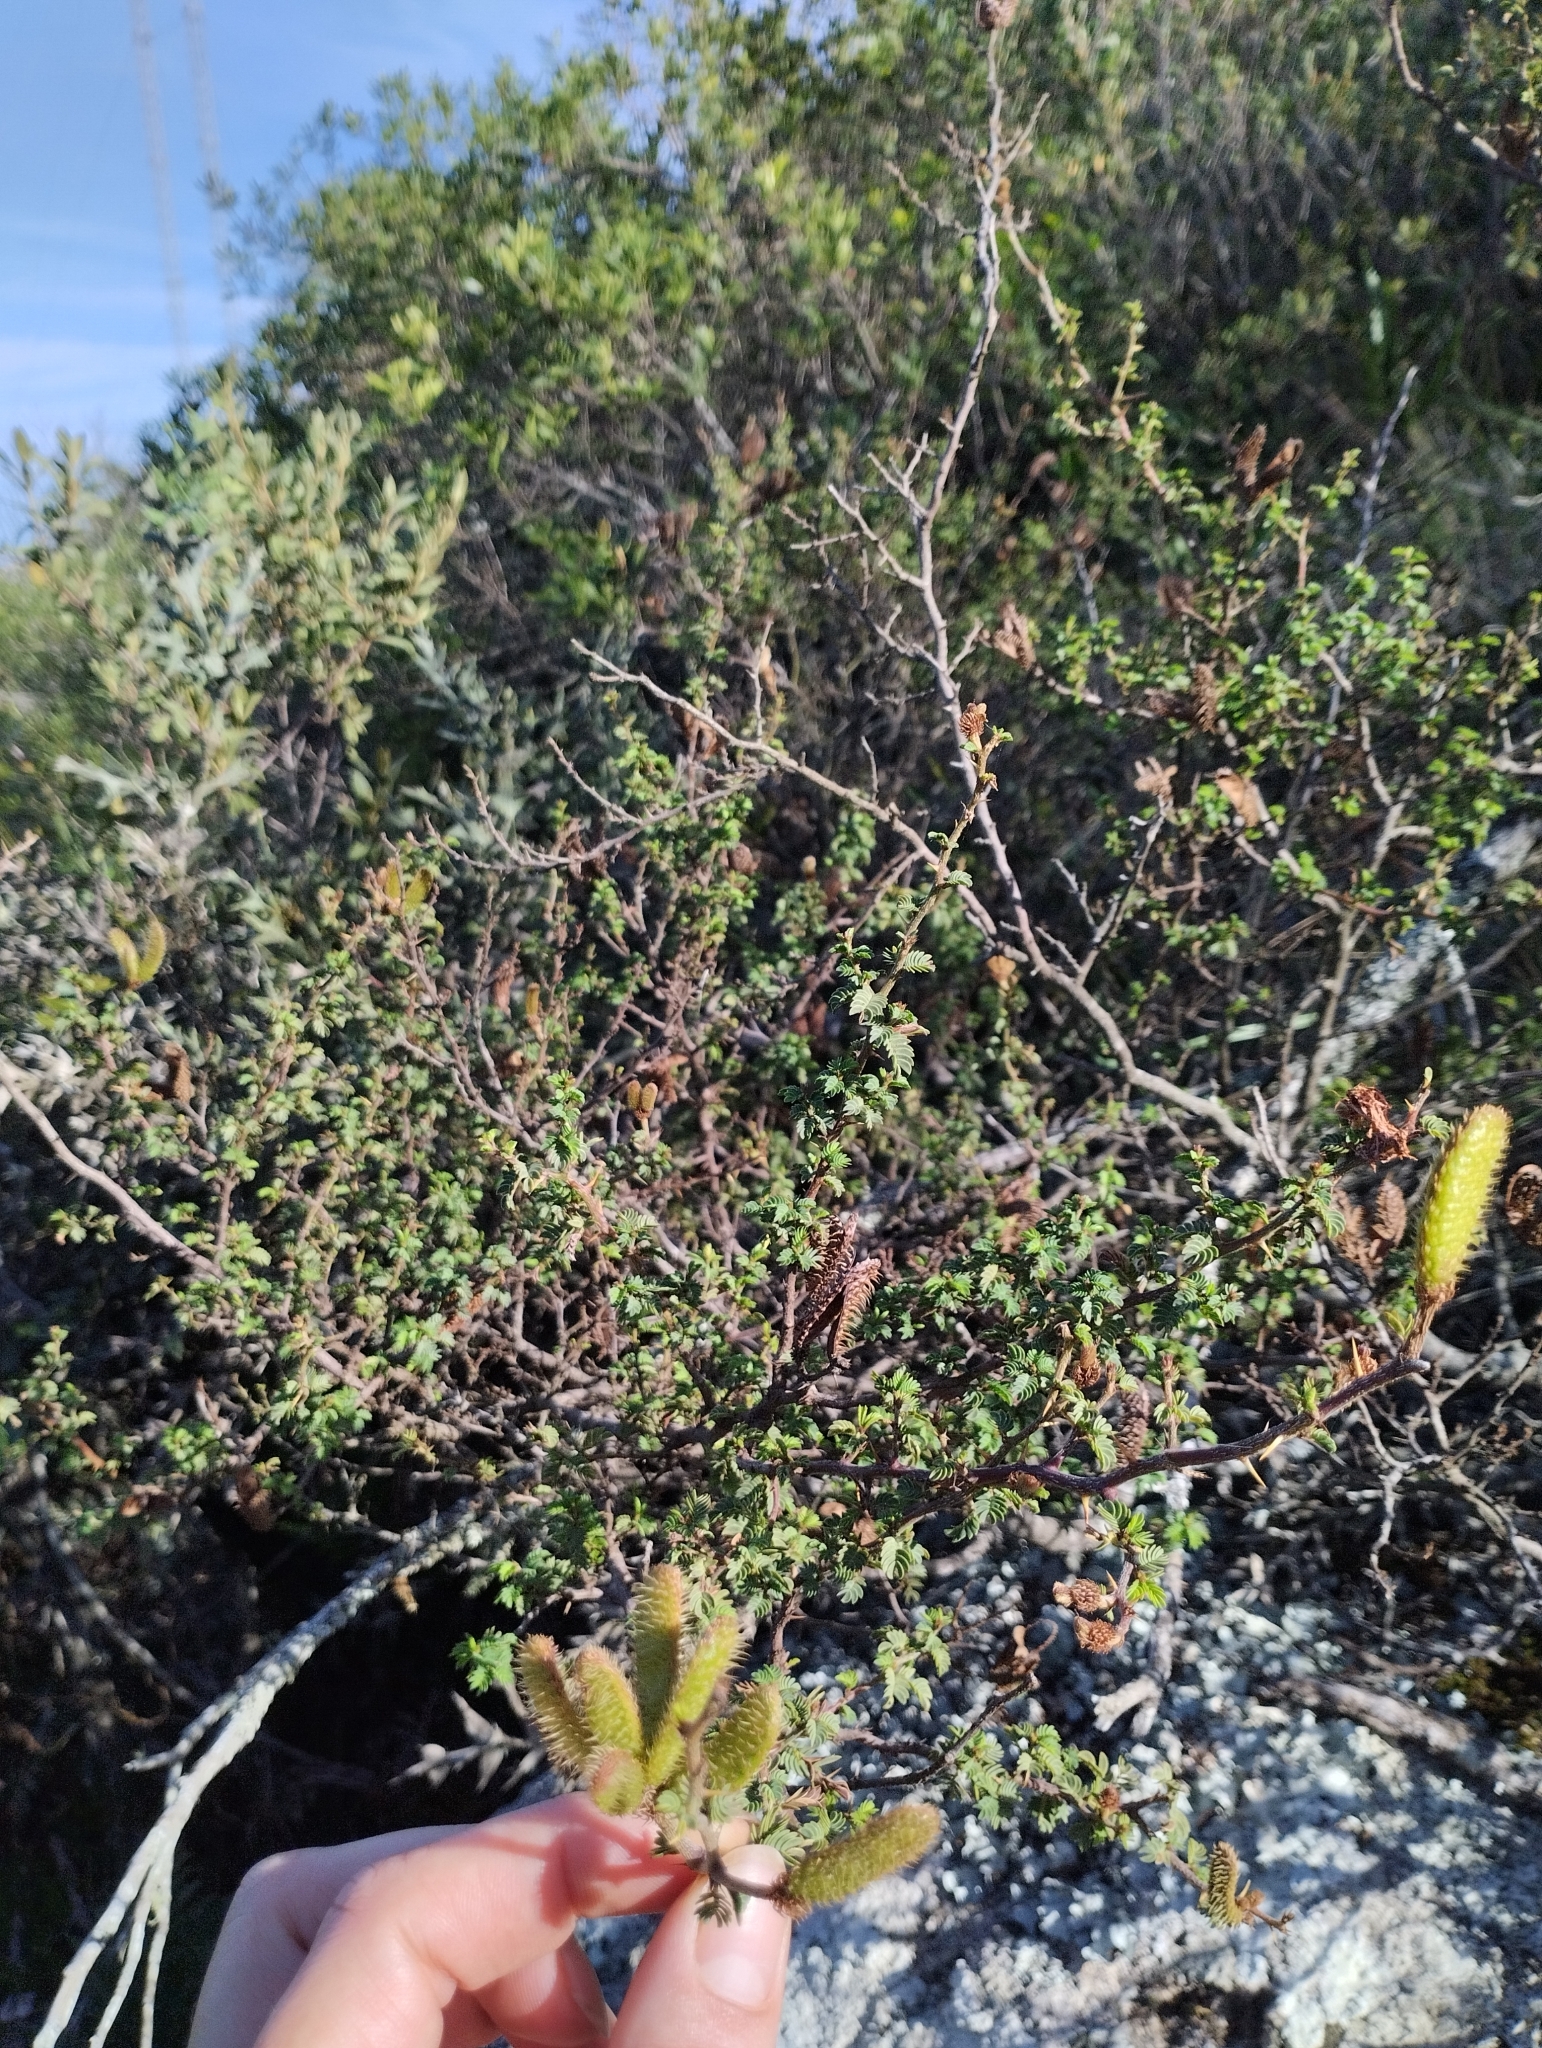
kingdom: Plantae
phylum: Tracheophyta
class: Magnoliopsida
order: Fabales
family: Fabaceae
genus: Mimosa
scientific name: Mimosa australis
